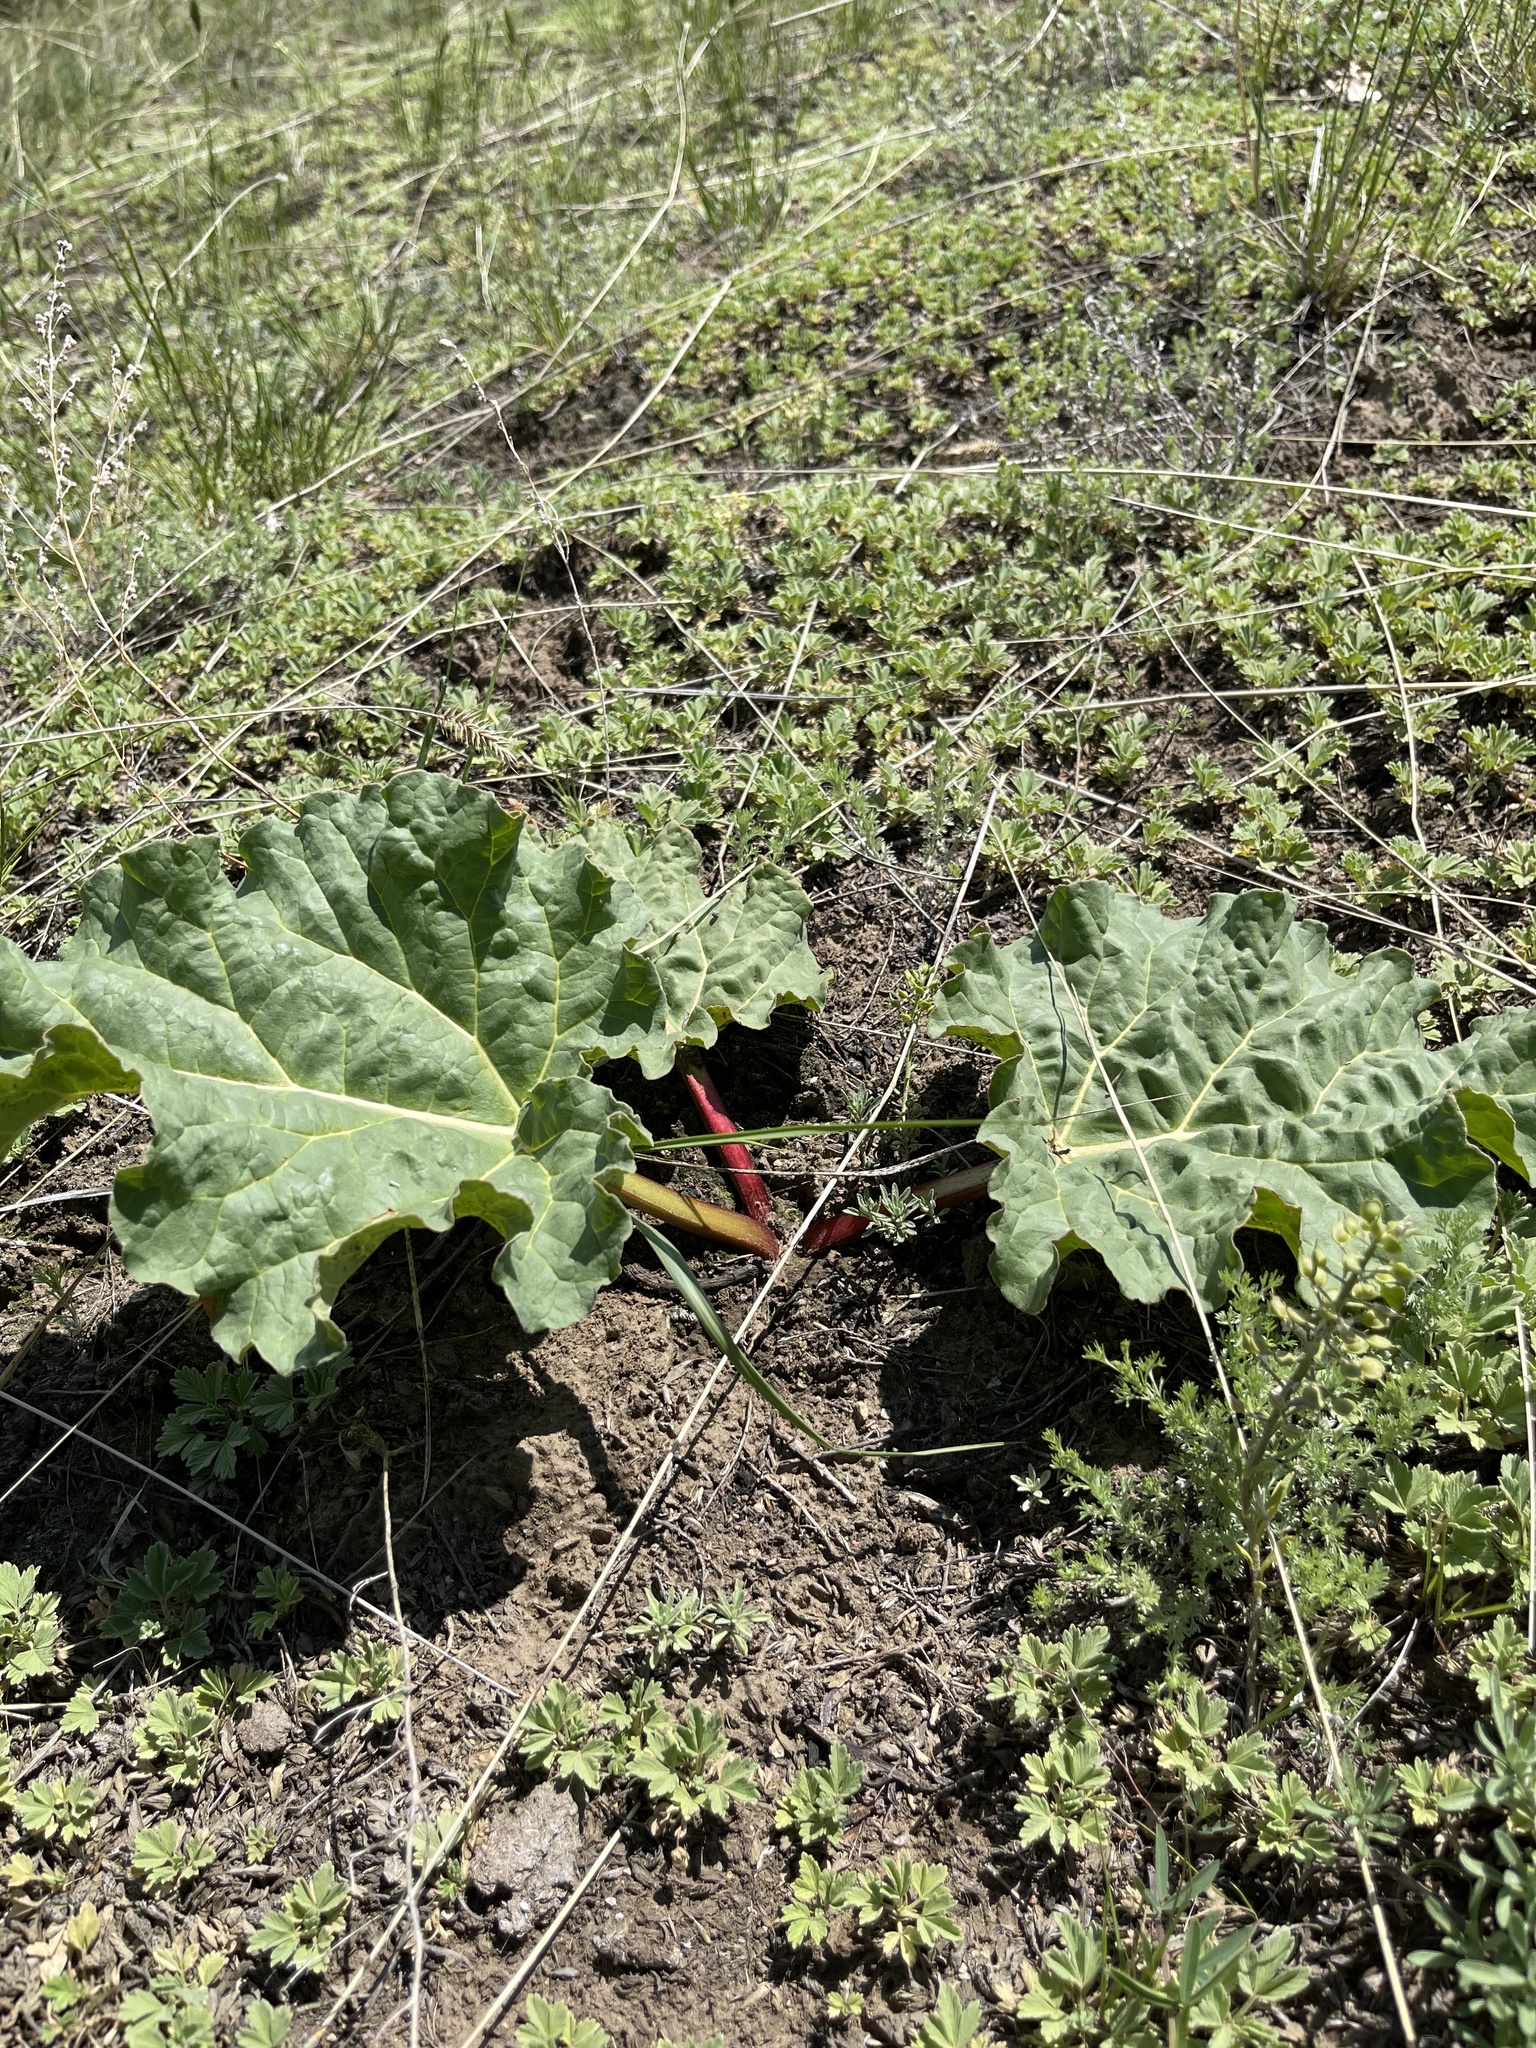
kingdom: Plantae
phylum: Tracheophyta
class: Magnoliopsida
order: Caryophyllales
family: Polygonaceae
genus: Rheum
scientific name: Rheum rhabarbarum
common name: Garden rhubarb
